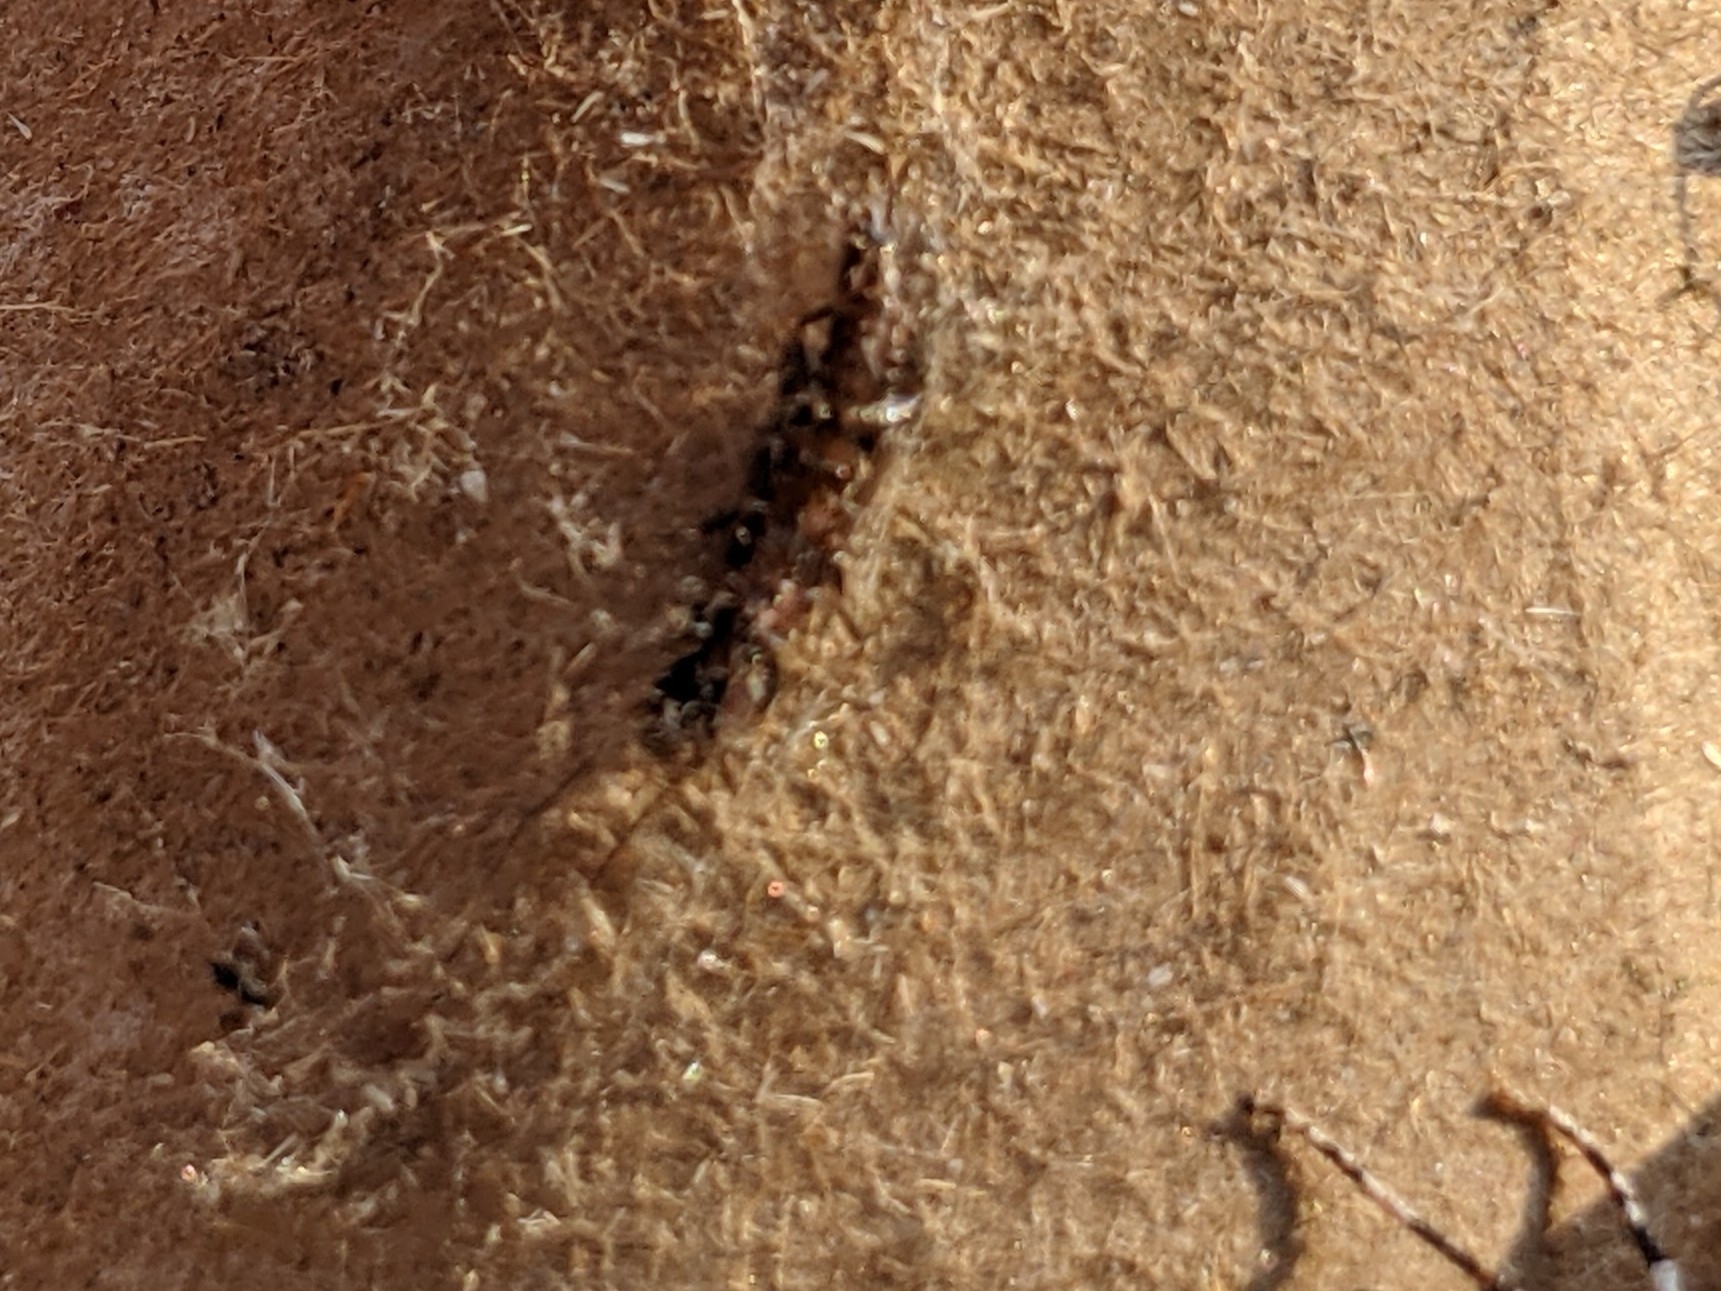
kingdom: Animalia
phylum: Arthropoda
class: Insecta
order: Embioptera
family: Oligotomidae
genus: Oligotoma
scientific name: Oligotoma nigra
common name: Black webspinner
